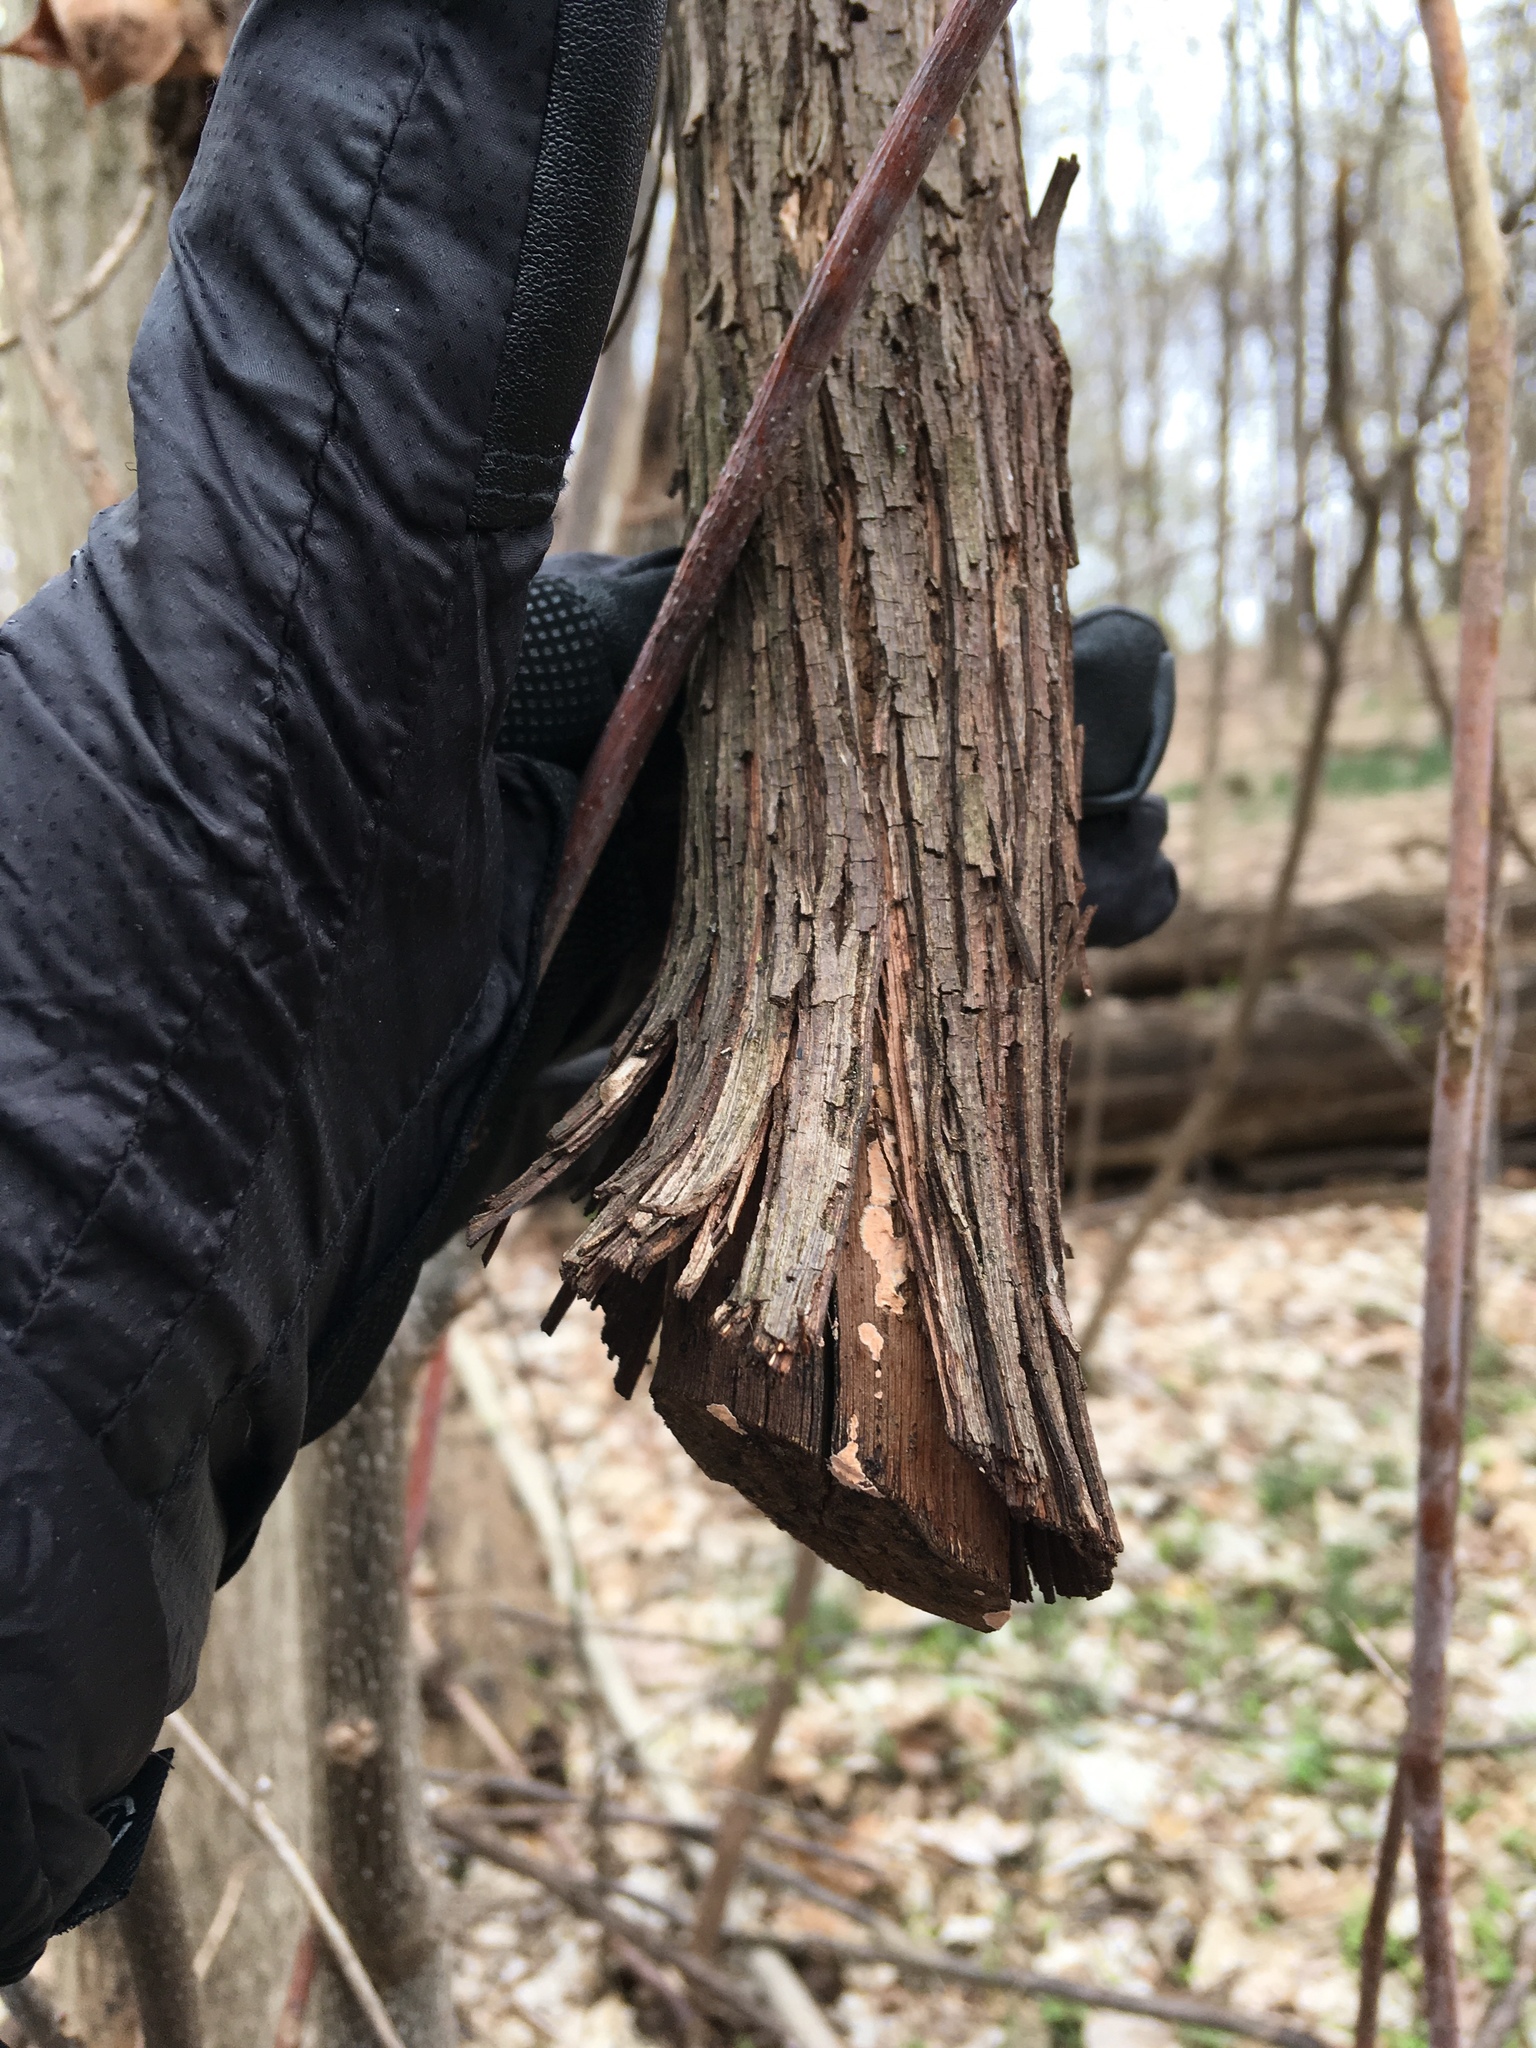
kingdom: Plantae
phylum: Tracheophyta
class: Magnoliopsida
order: Vitales
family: Vitaceae
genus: Vitis
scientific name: Vitis
